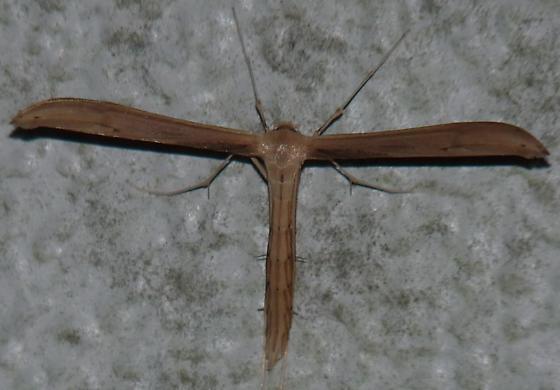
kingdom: Animalia
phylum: Arthropoda
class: Insecta
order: Lepidoptera
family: Pterophoridae
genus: Hellinsia
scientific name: Hellinsia balanotes
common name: Baccharis borer
